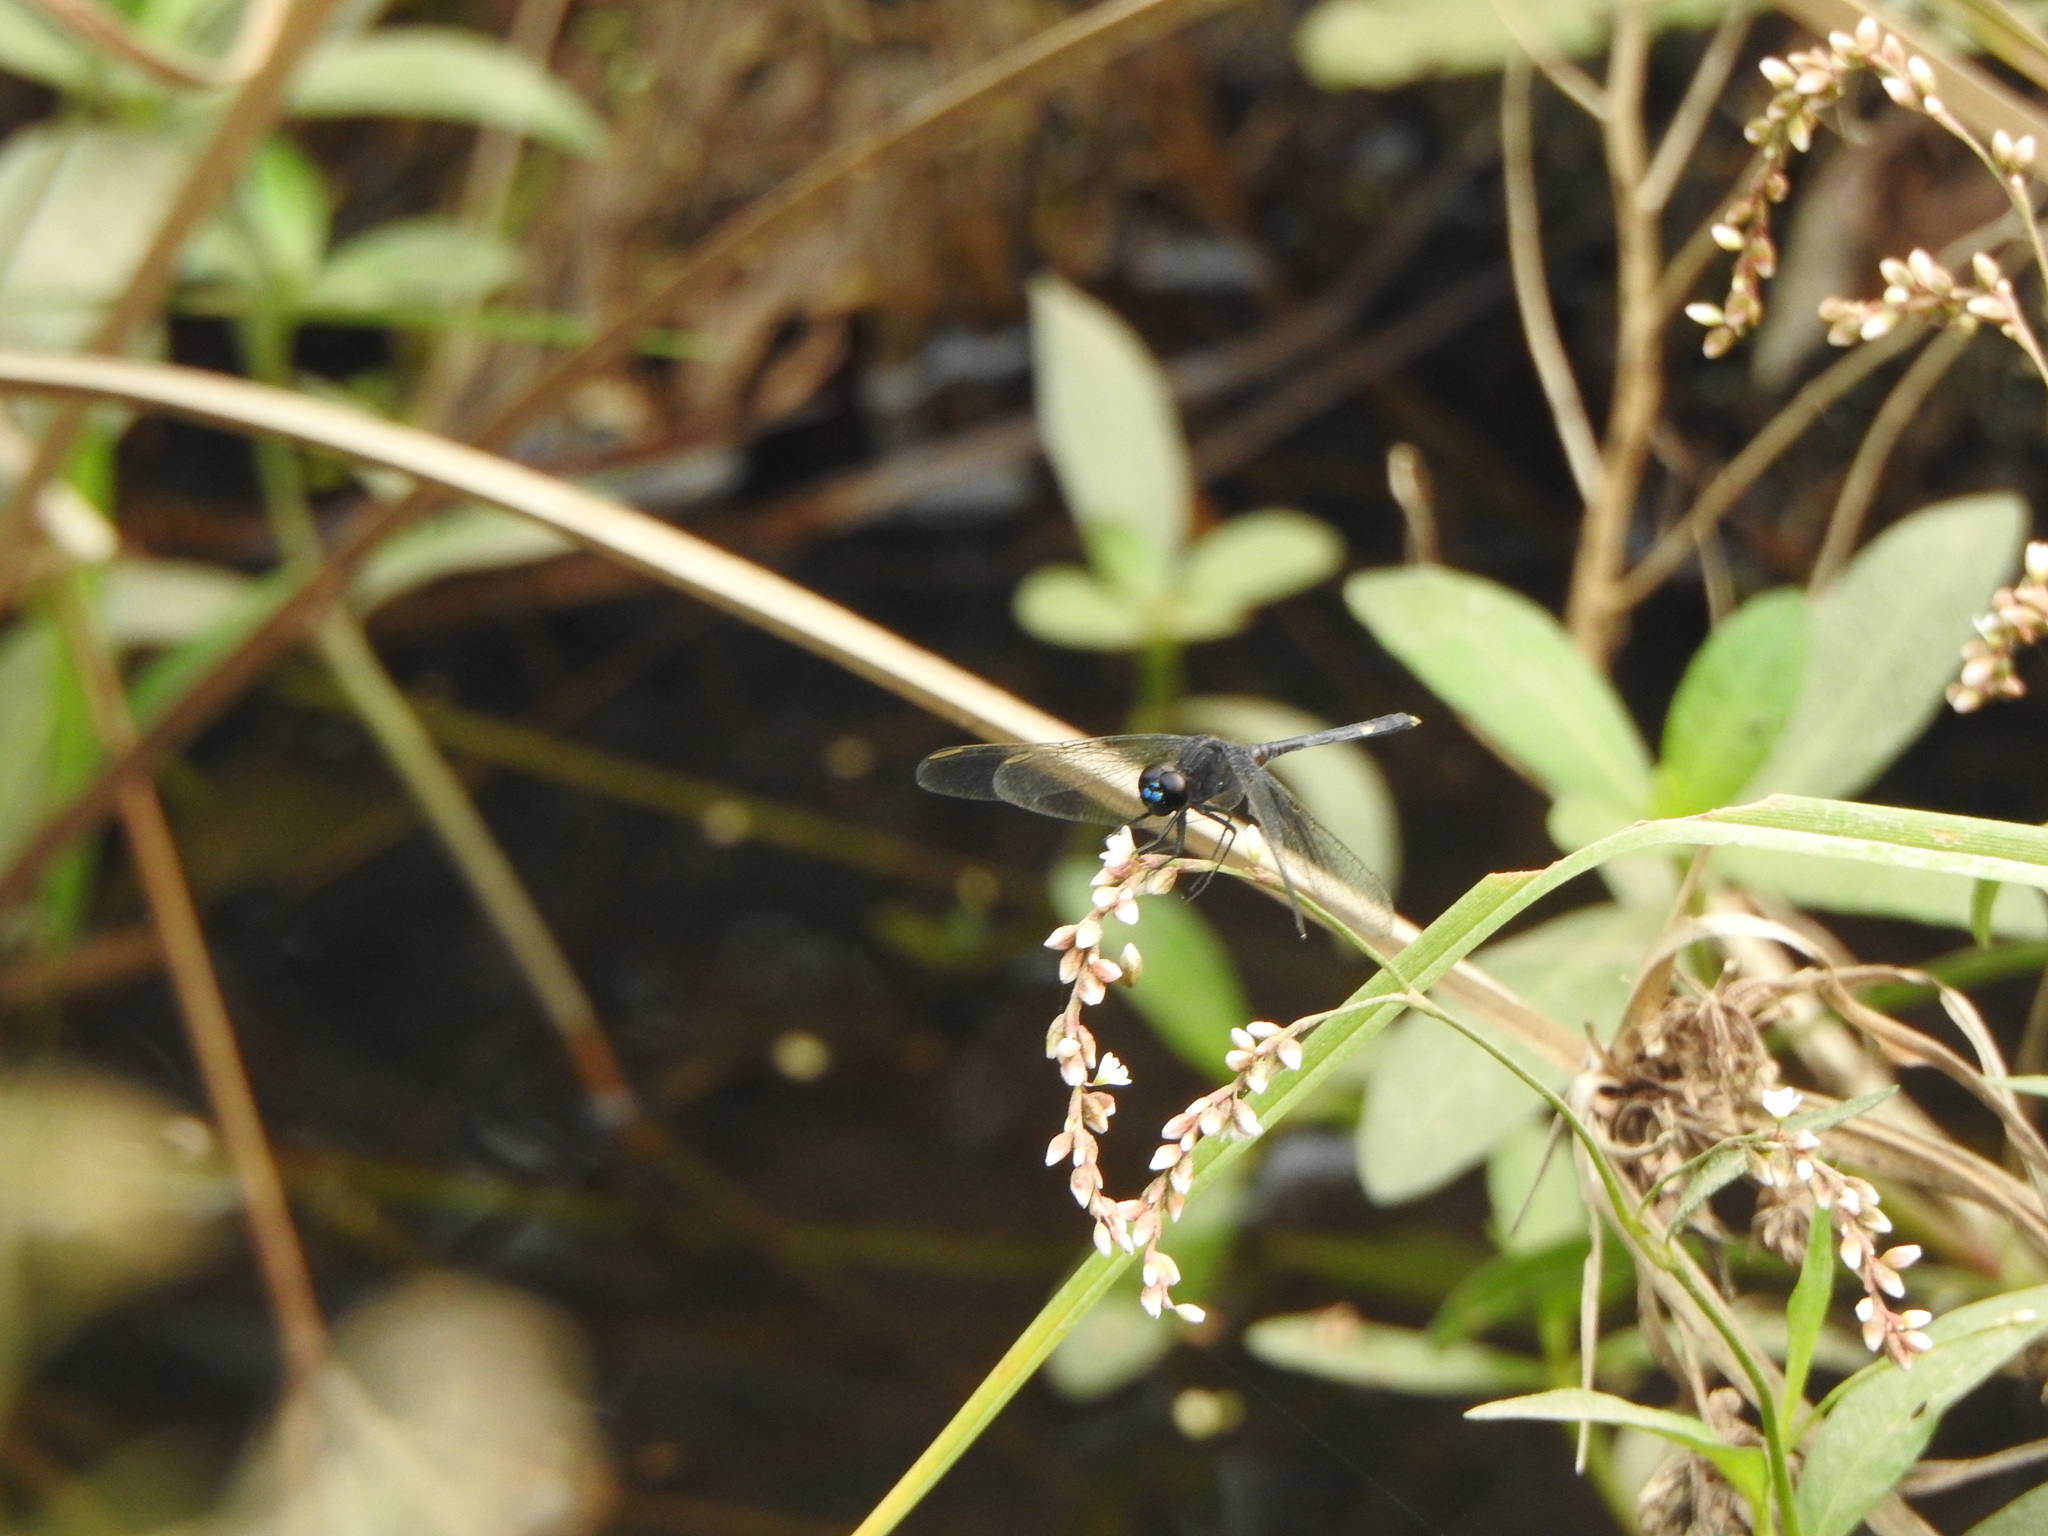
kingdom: Animalia
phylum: Arthropoda
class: Insecta
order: Odonata
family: Libellulidae
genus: Erythrodiplax
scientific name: Erythrodiplax nigricans
